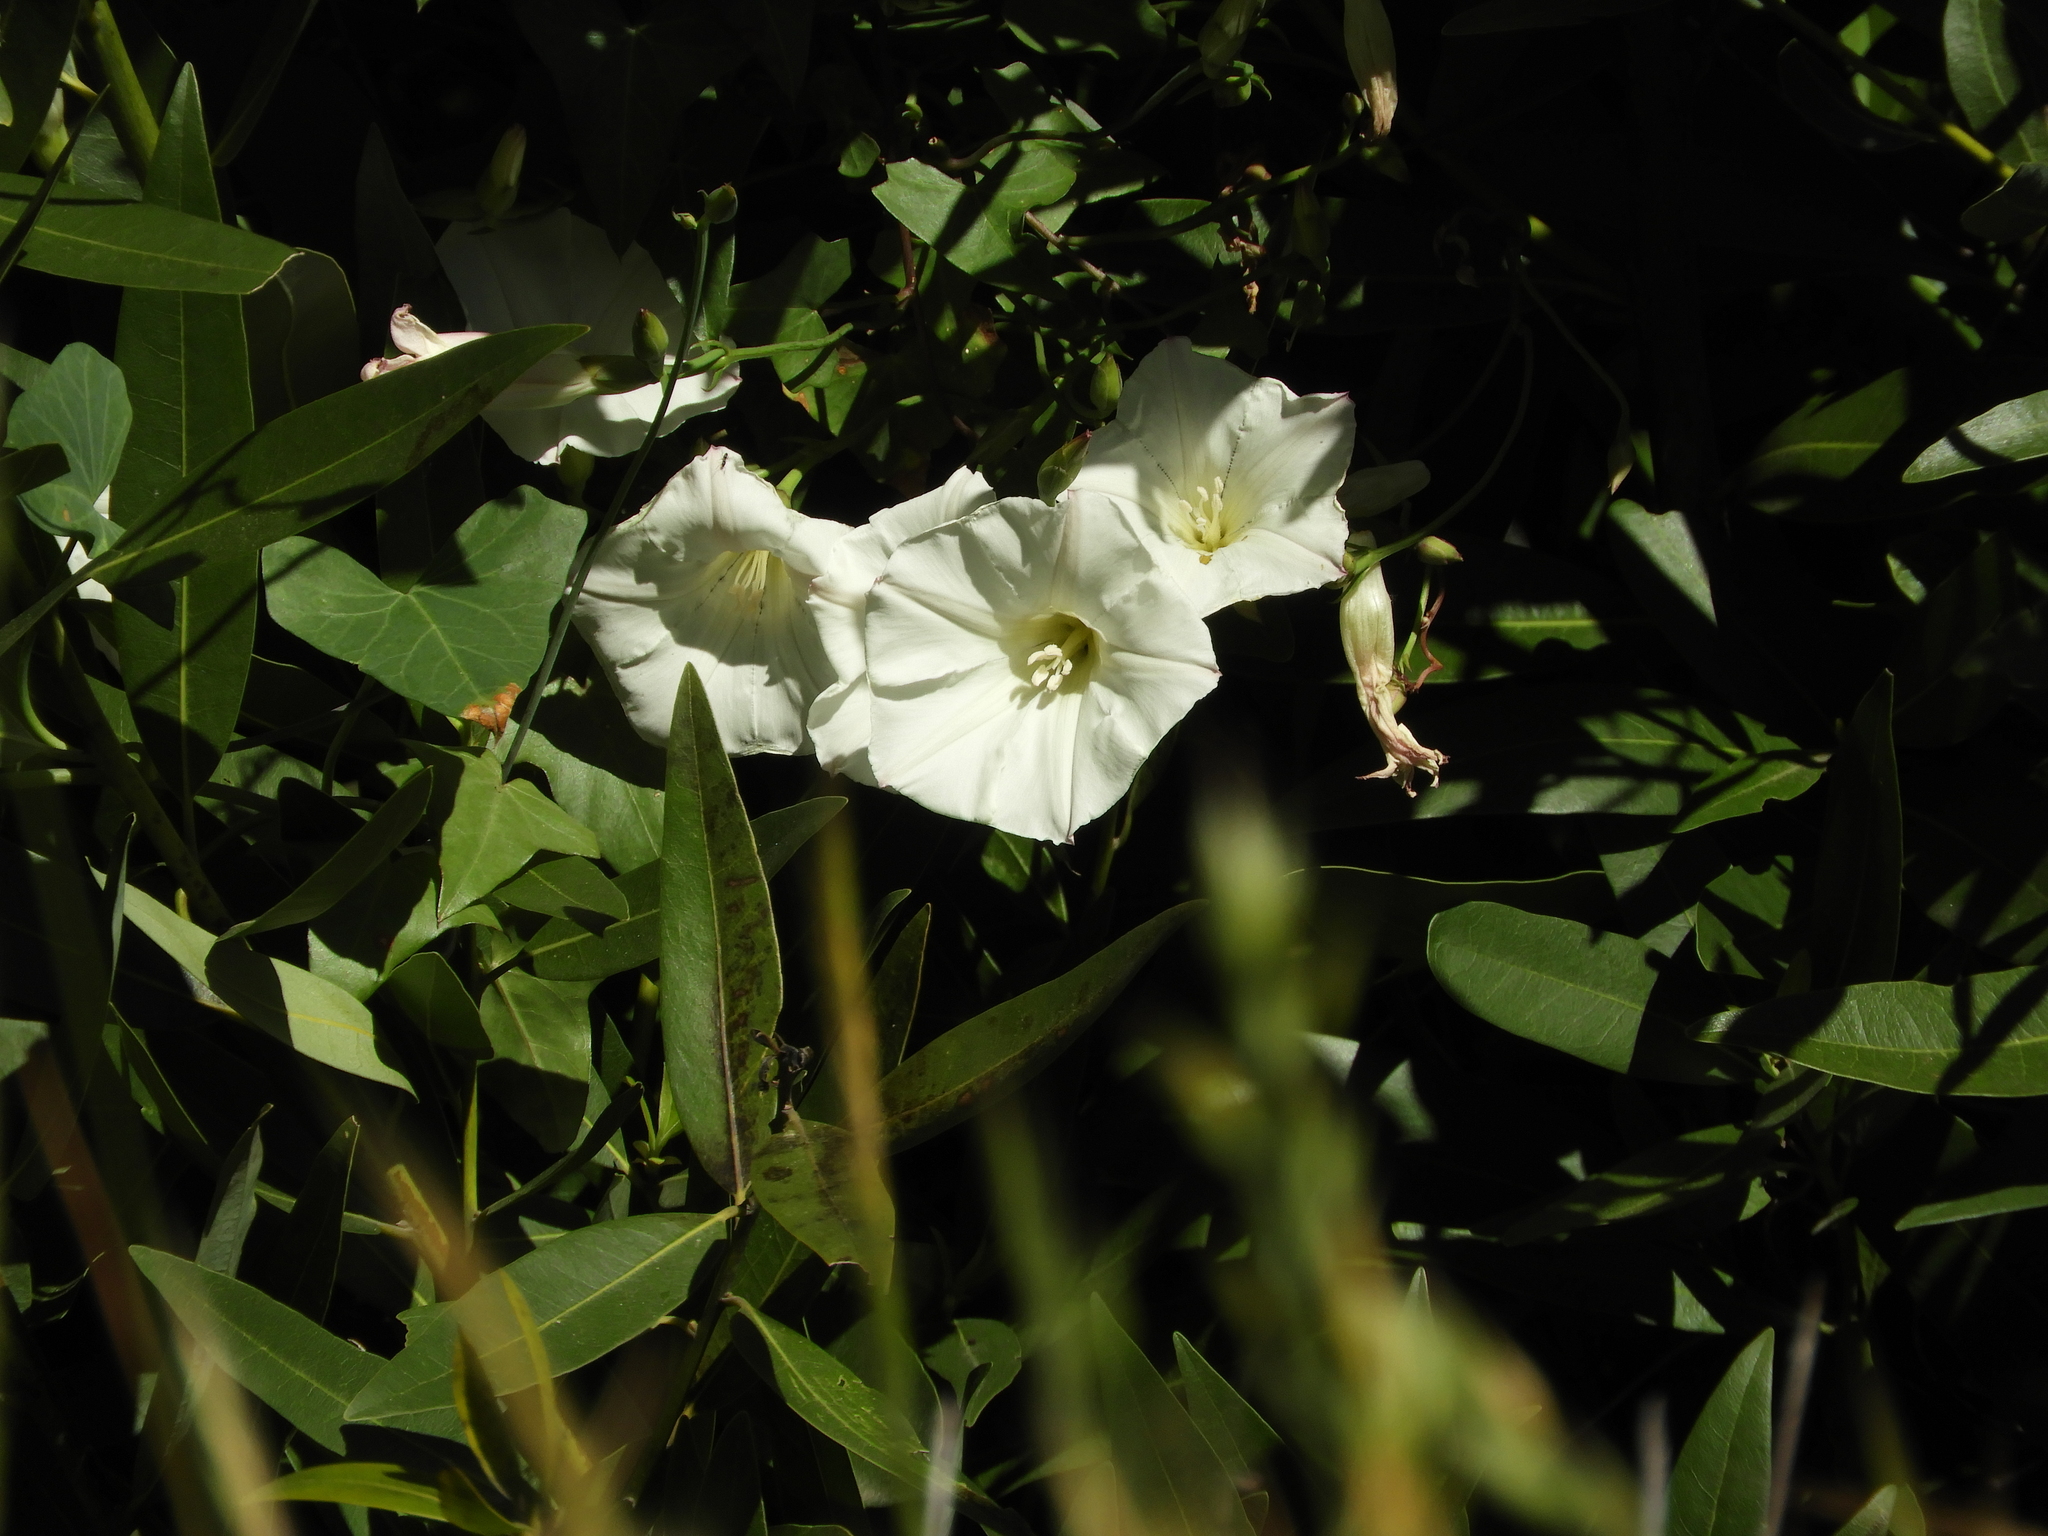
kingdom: Plantae
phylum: Tracheophyta
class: Magnoliopsida
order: Solanales
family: Convolvulaceae
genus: Calystegia
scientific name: Calystegia purpurata
